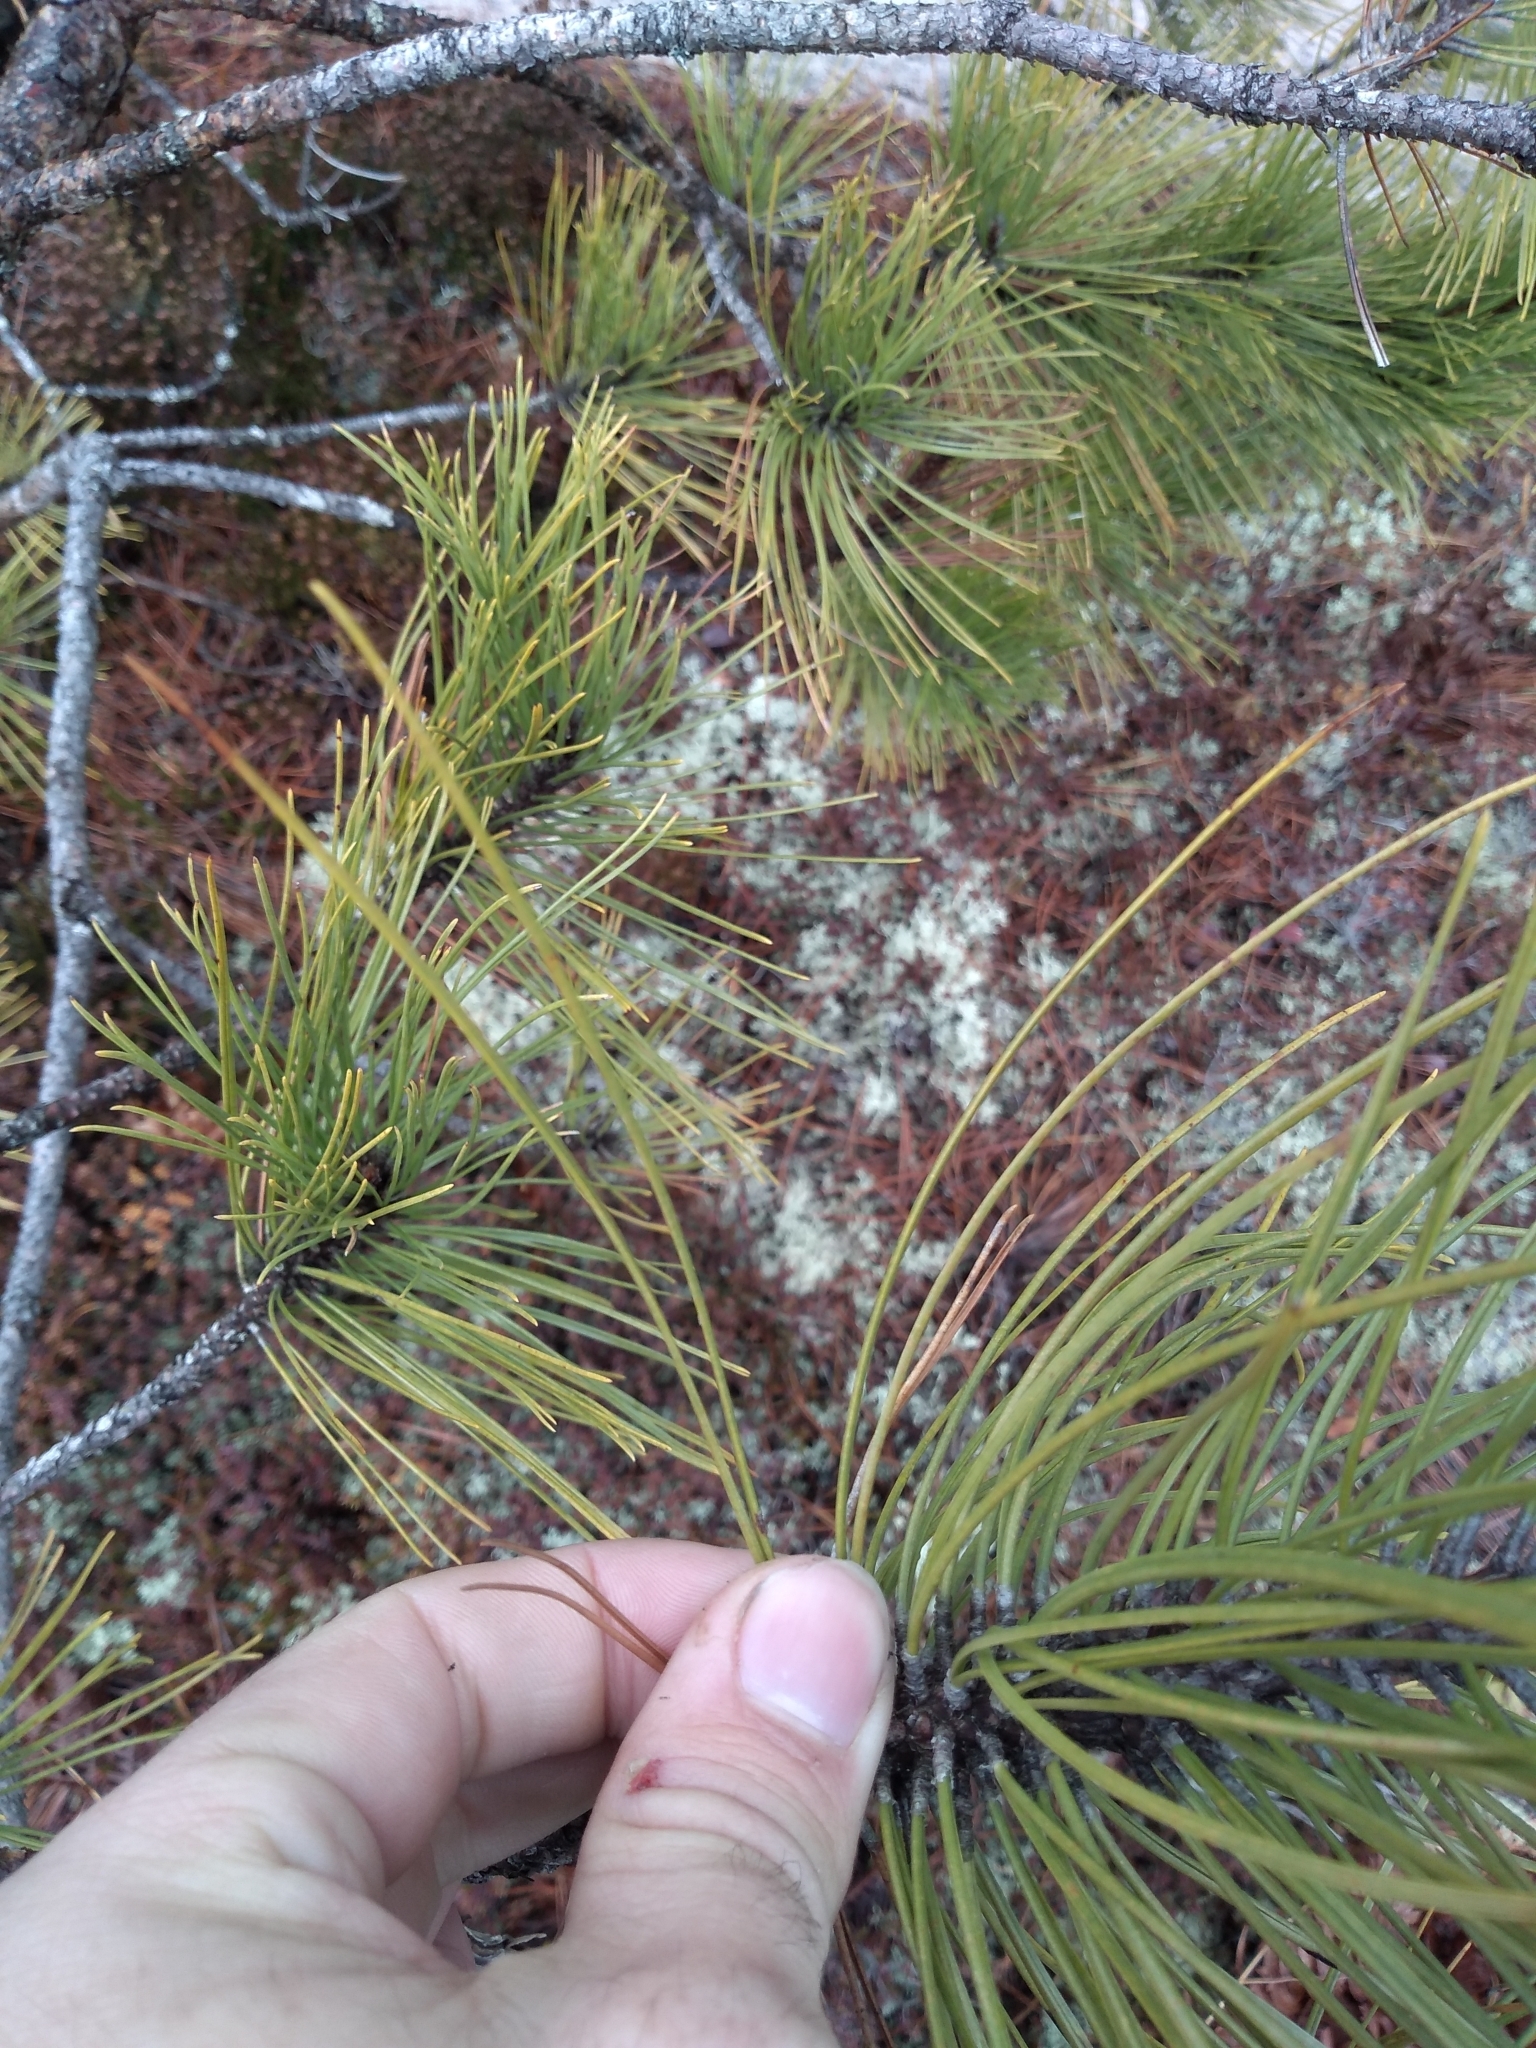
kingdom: Plantae
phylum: Tracheophyta
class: Pinopsida
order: Pinales
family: Pinaceae
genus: Pinus
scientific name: Pinus resinosa
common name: Norway pine
